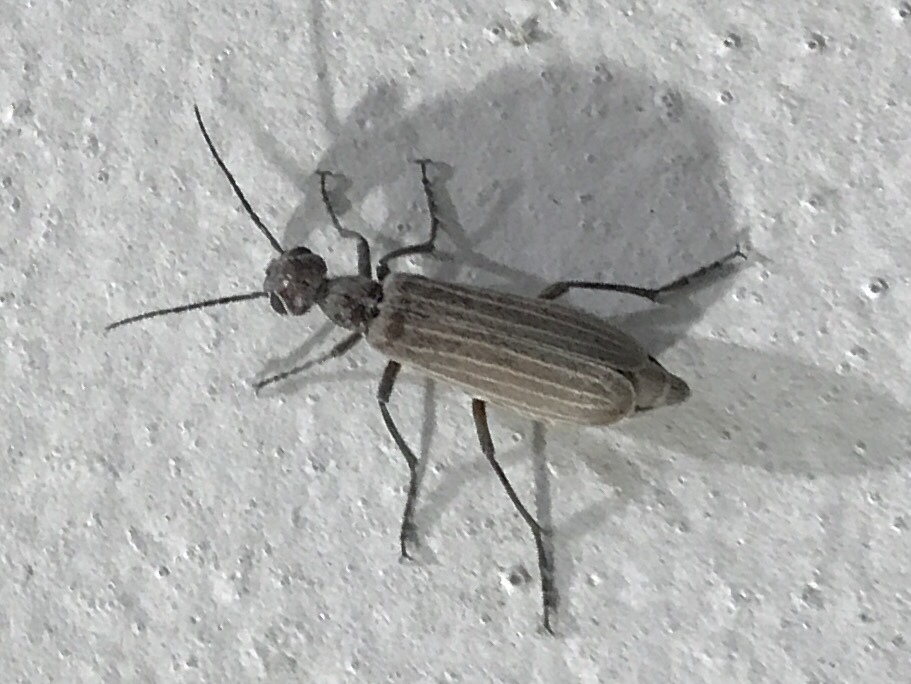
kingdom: Animalia
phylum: Arthropoda
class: Insecta
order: Coleoptera
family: Meloidae
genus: Epicauta
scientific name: Epicauta tenuilineata
